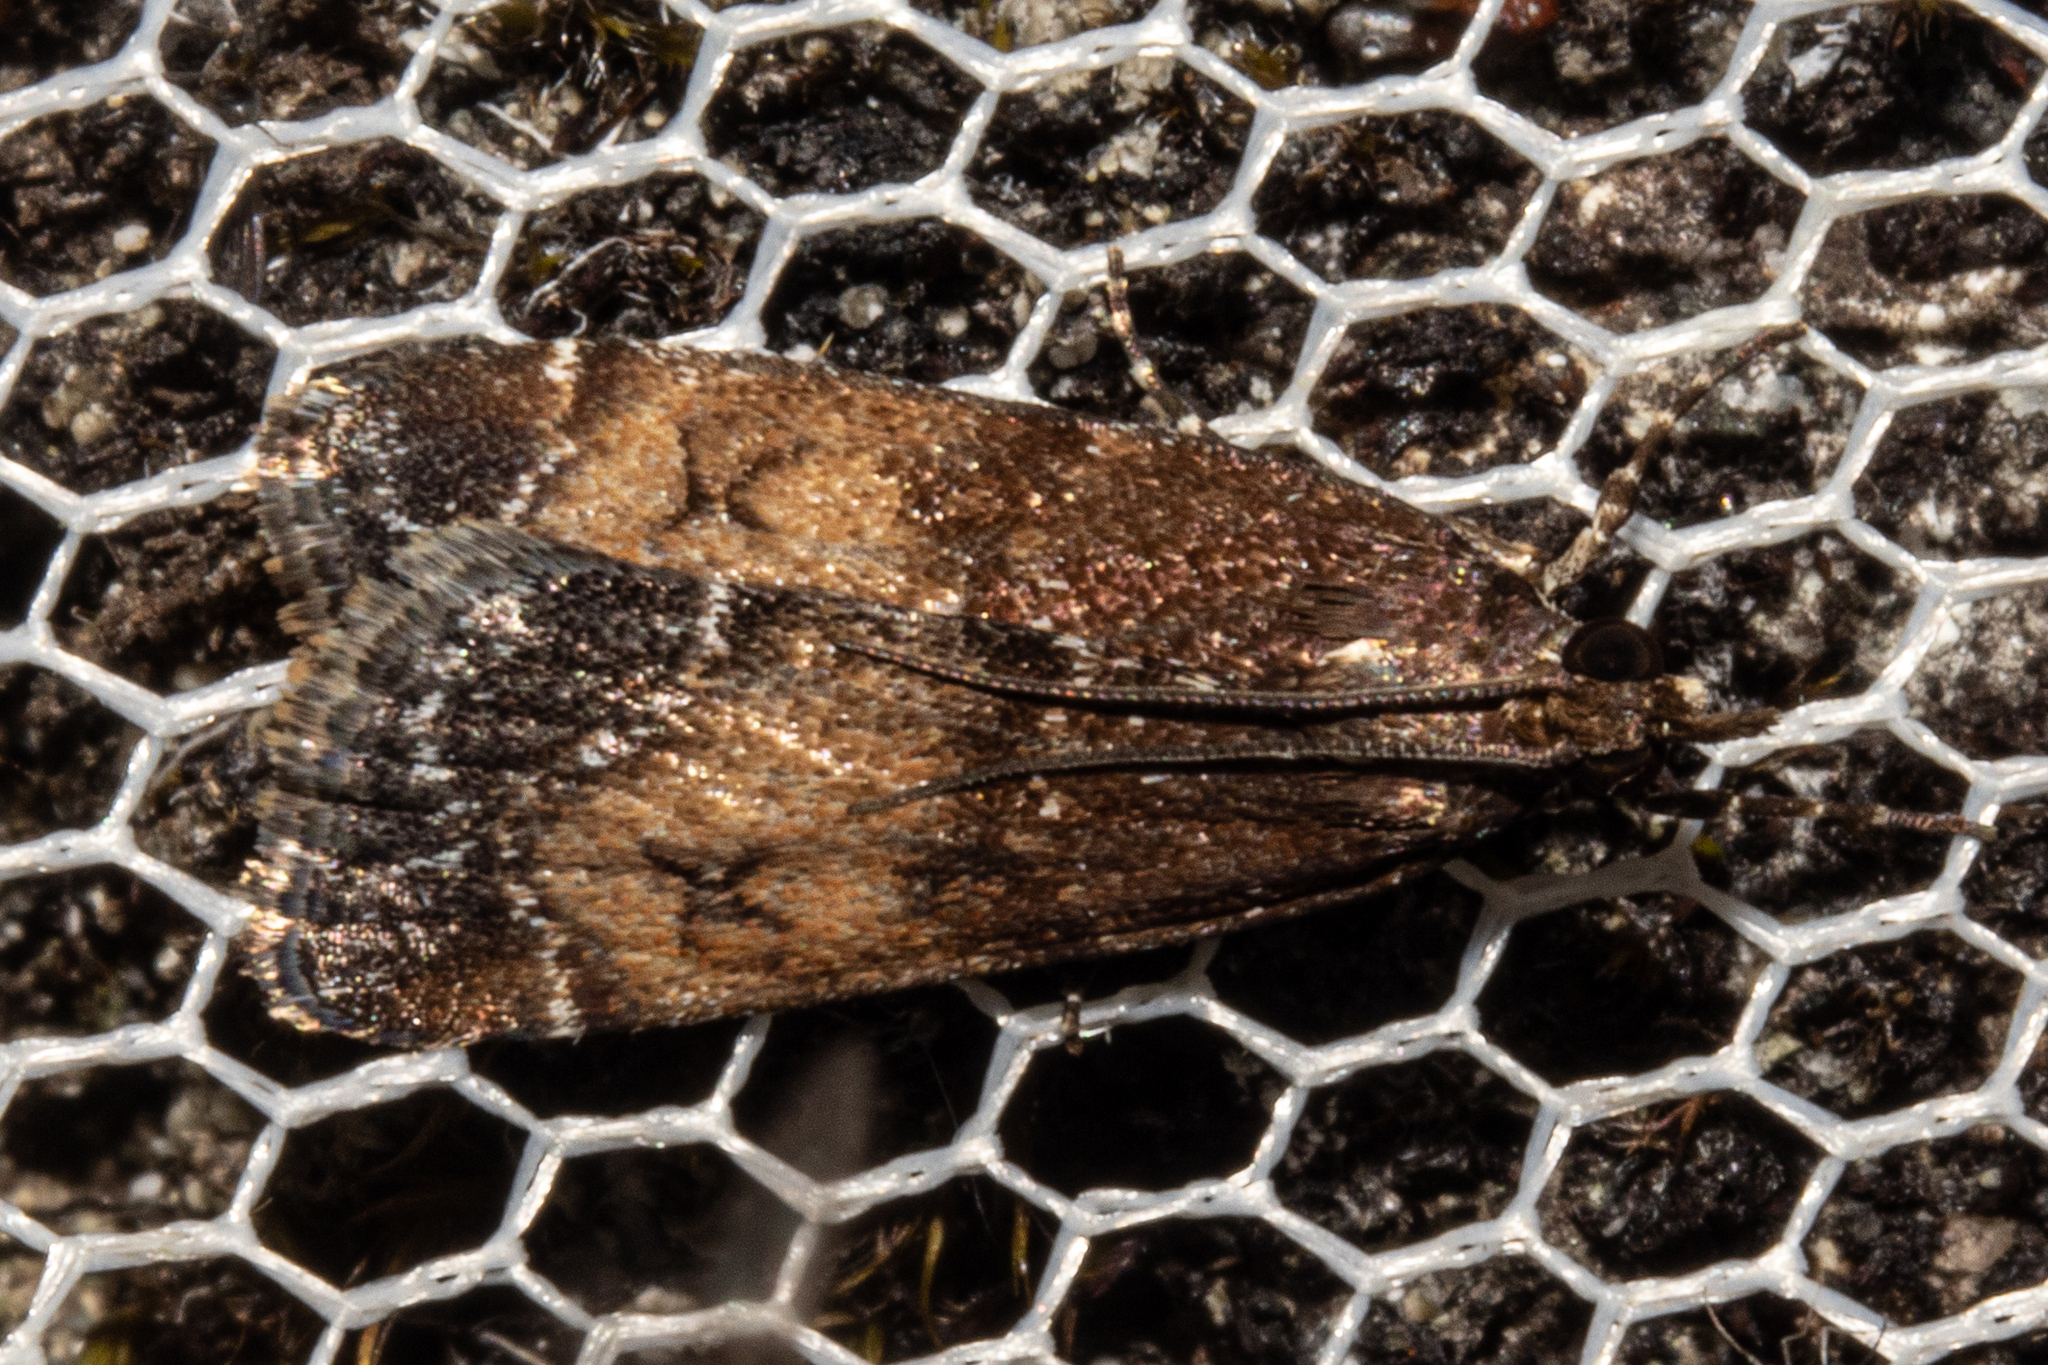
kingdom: Animalia
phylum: Arthropoda
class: Insecta
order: Lepidoptera
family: Crambidae
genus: Eudonia
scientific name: Eudonia asterisca
